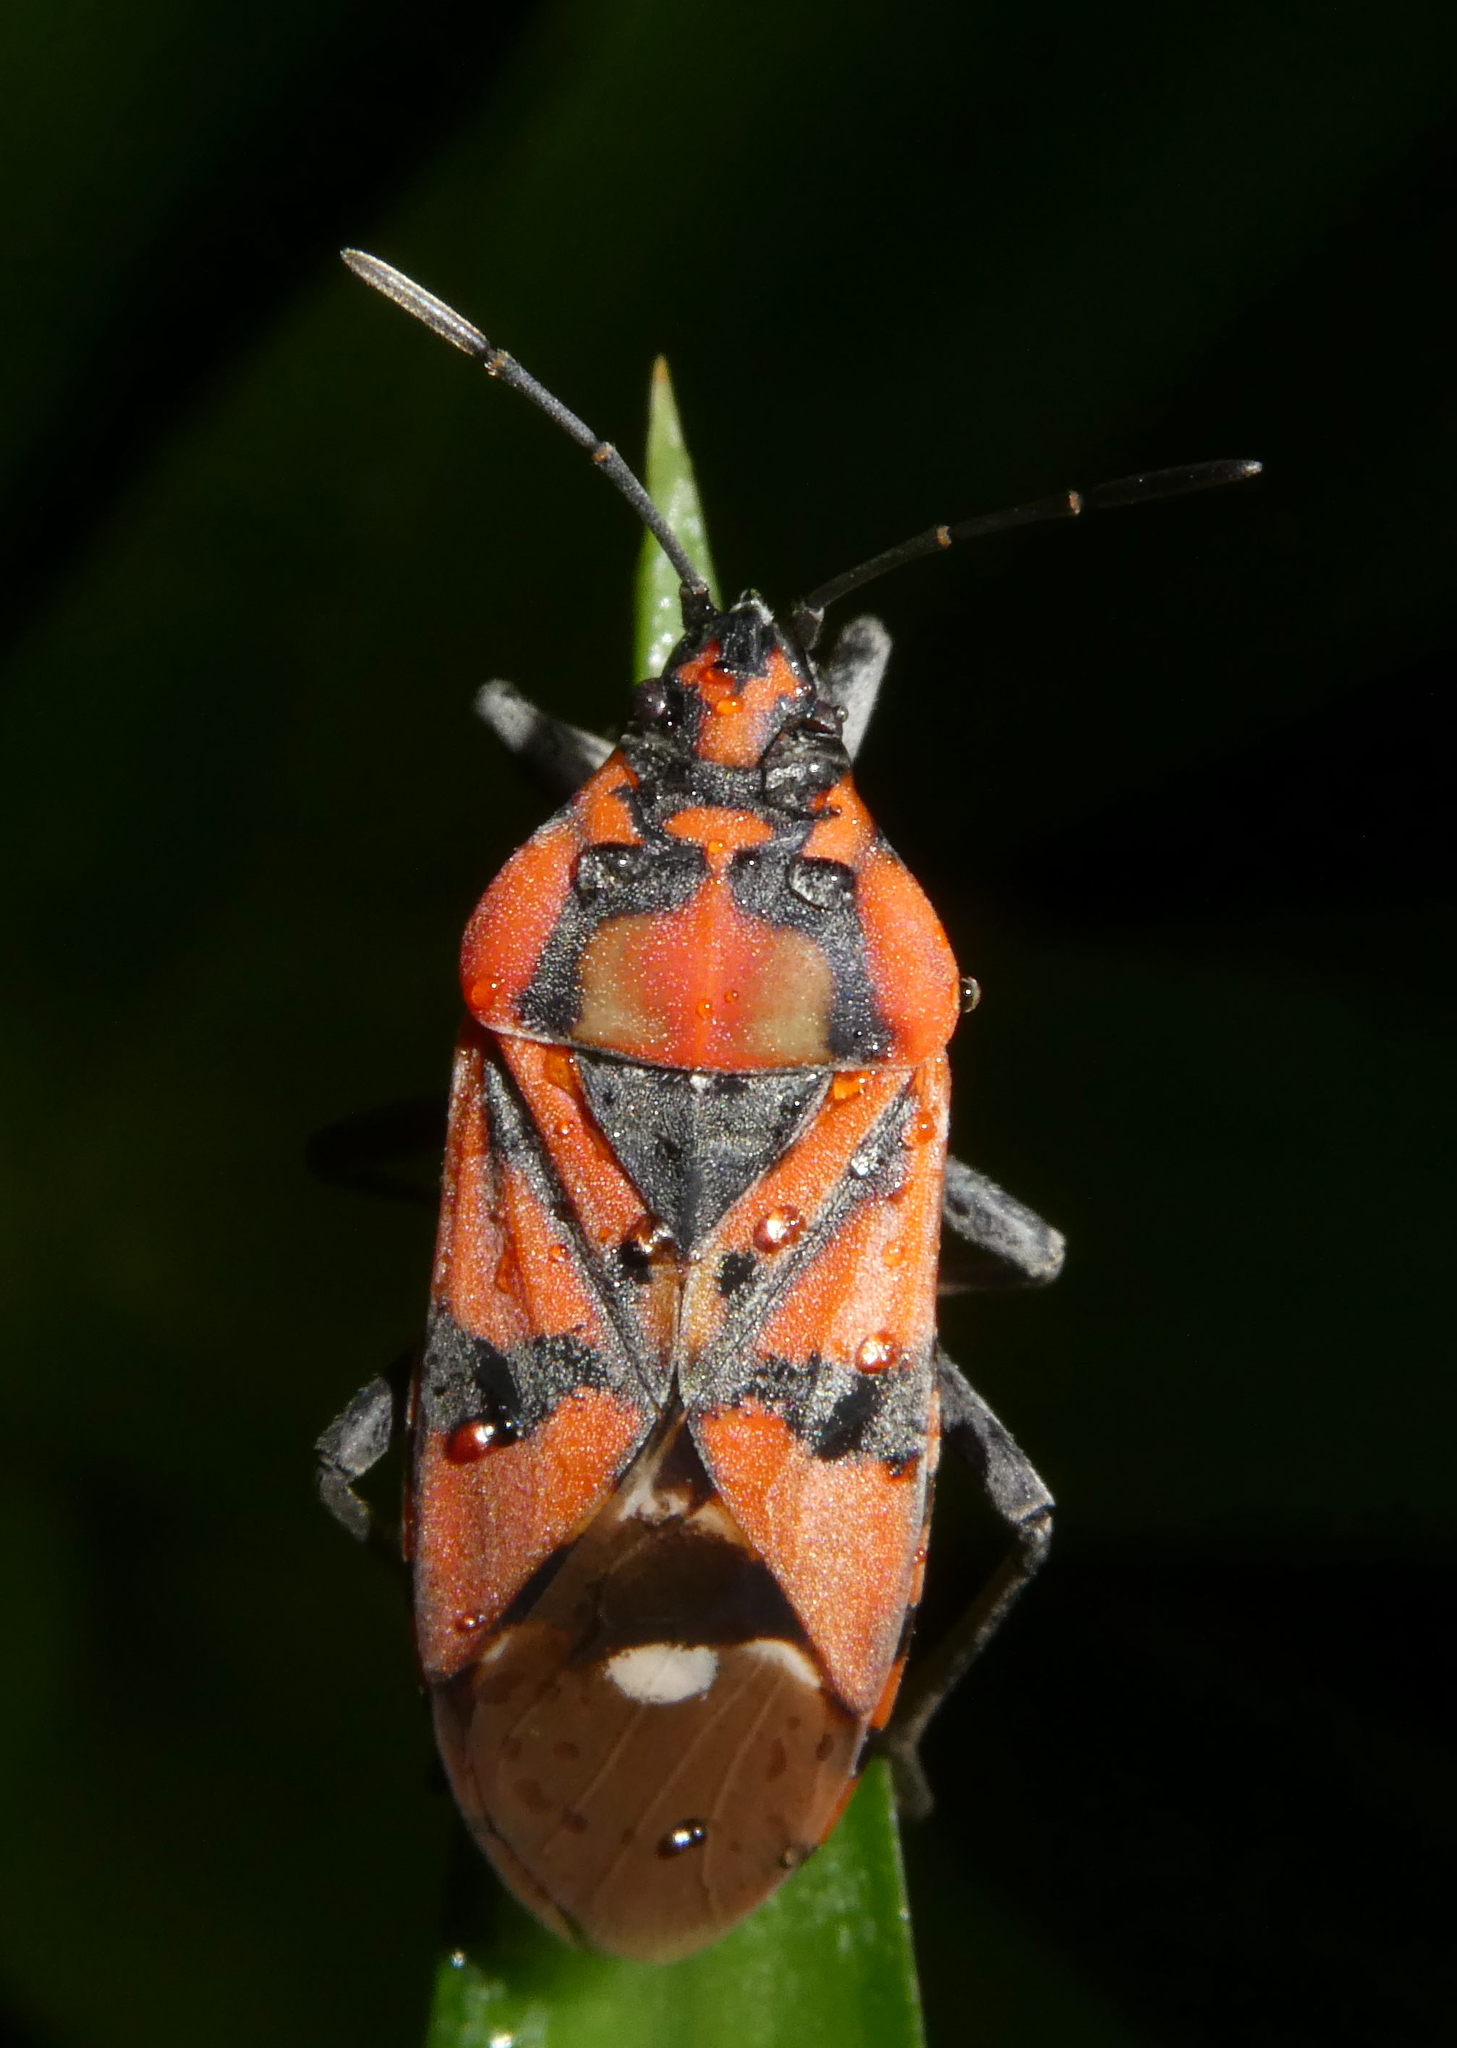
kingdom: Animalia
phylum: Arthropoda
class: Insecta
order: Hemiptera
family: Lygaeidae
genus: Spilostethus
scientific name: Spilostethus pandurus
